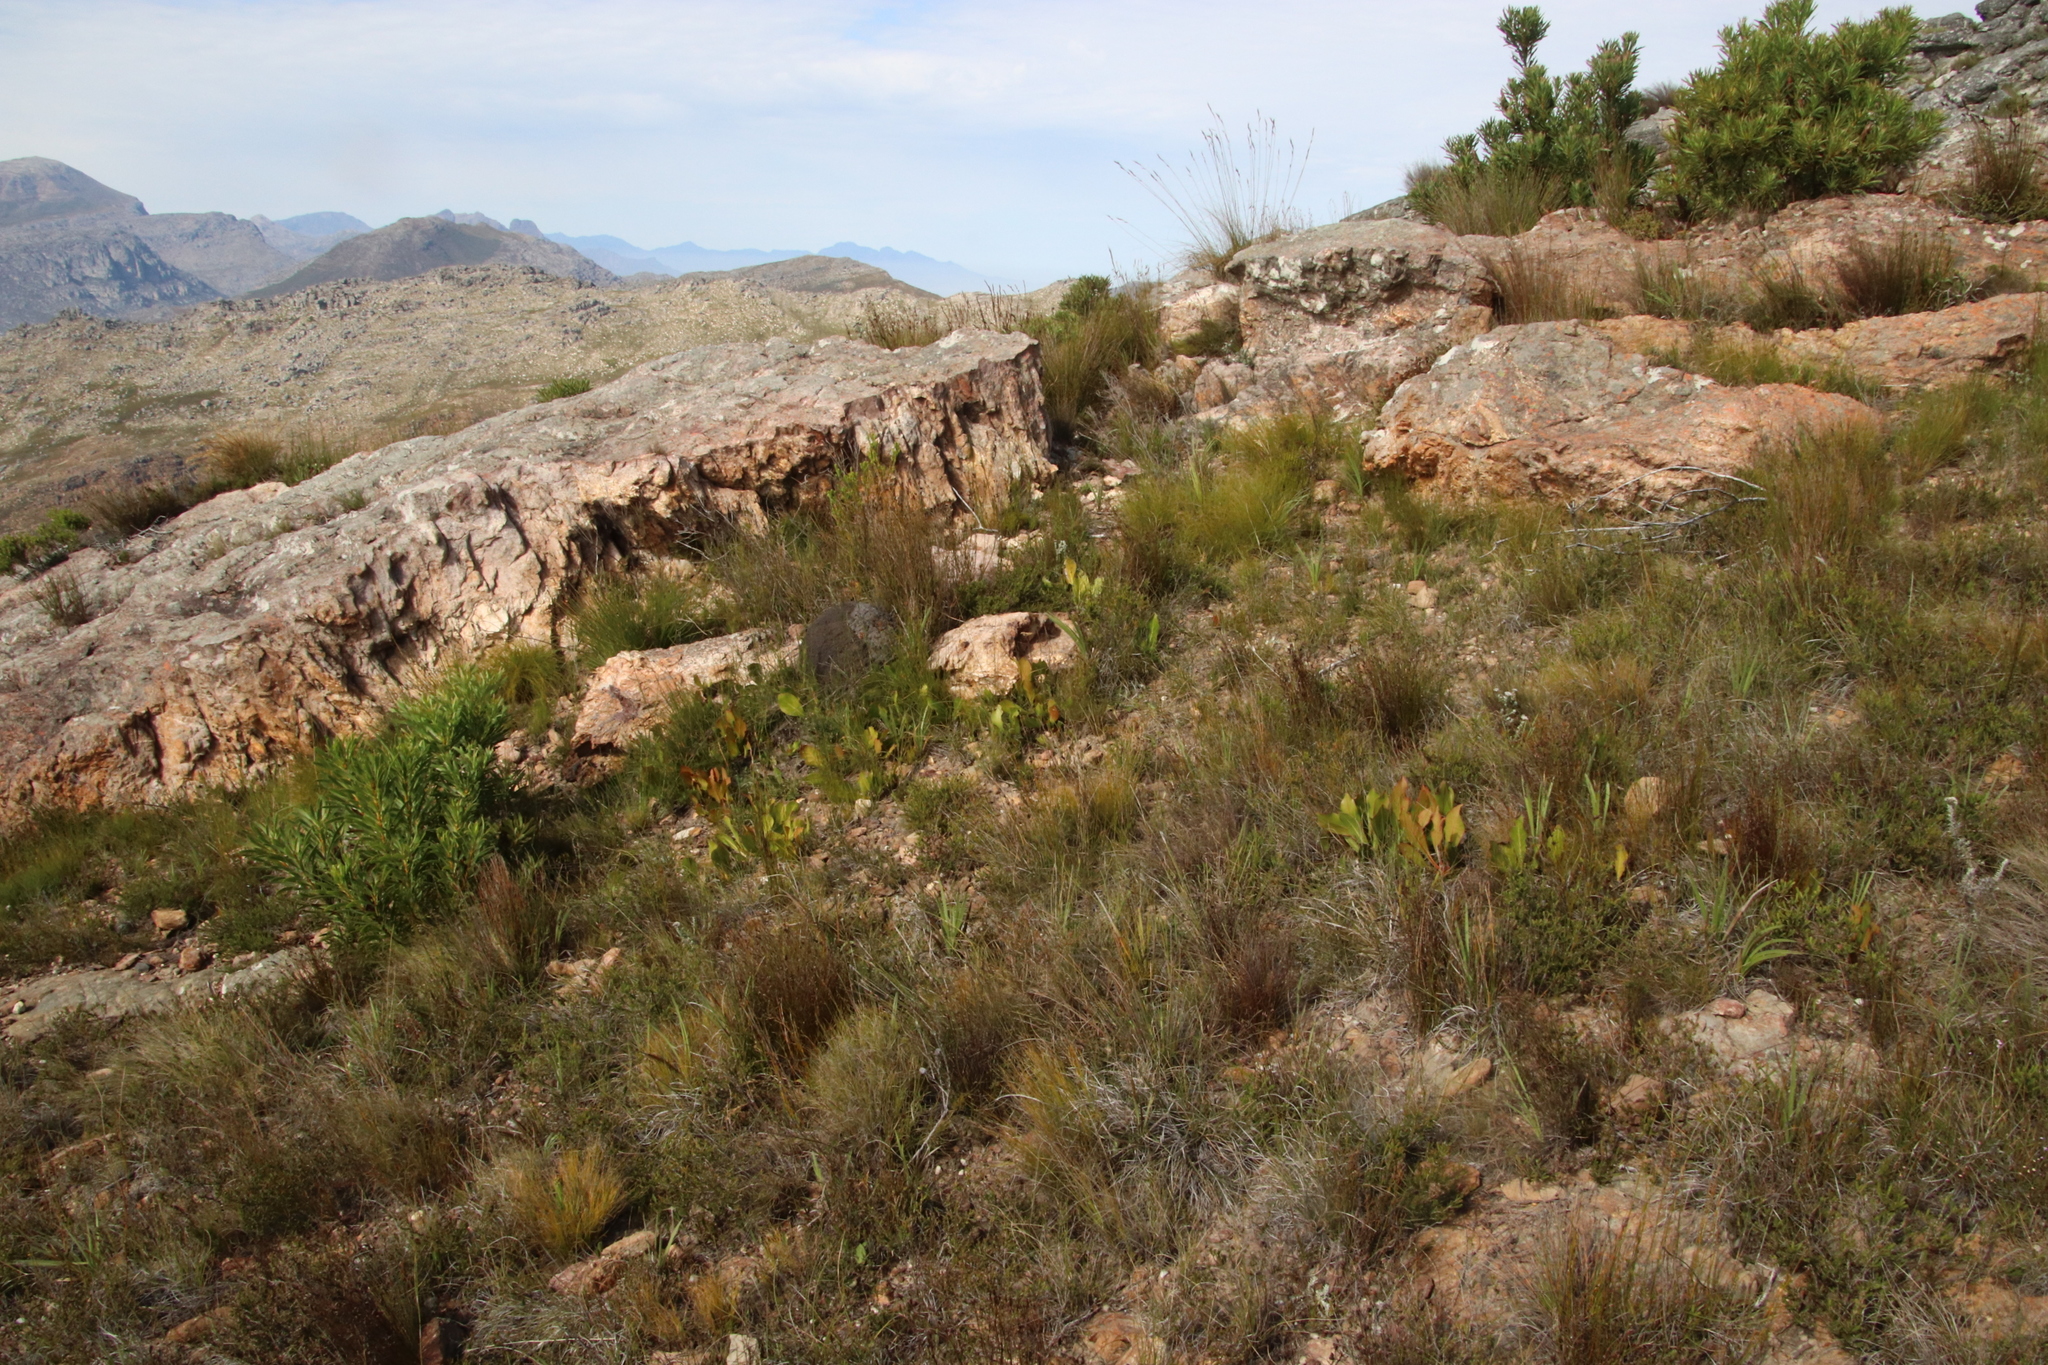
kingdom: Plantae
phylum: Tracheophyta
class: Magnoliopsida
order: Proteales
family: Proteaceae
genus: Protea
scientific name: Protea acaulos
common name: Common ground sugarbush
